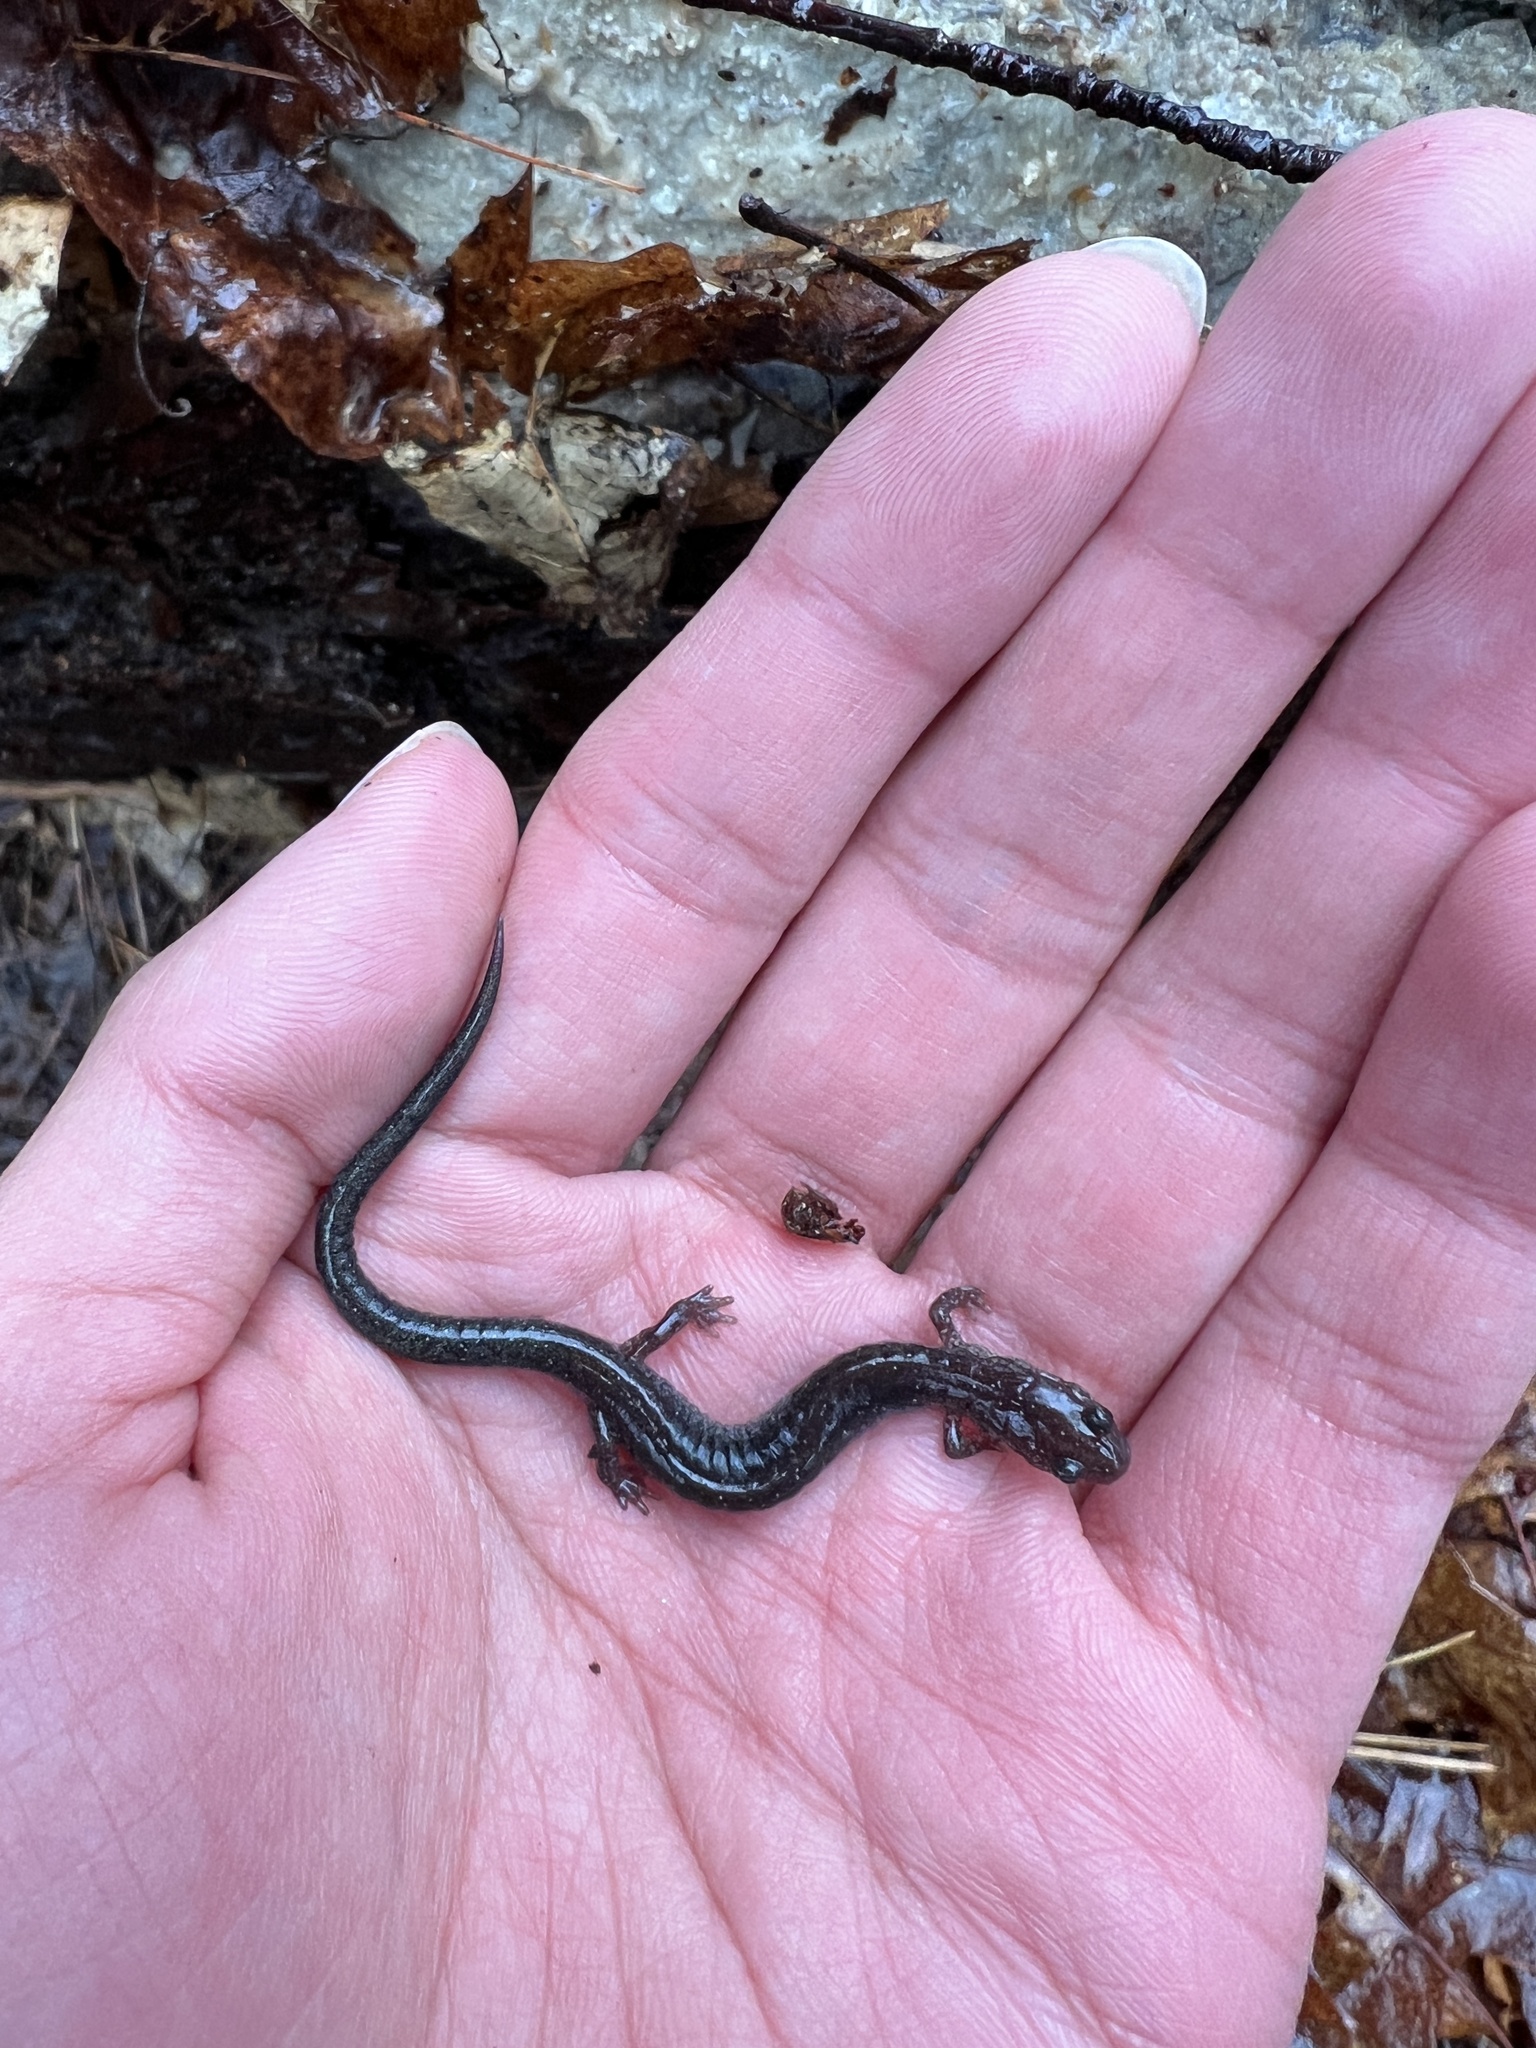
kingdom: Animalia
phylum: Chordata
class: Amphibia
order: Caudata
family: Plethodontidae
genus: Plethodon
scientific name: Plethodon cinereus
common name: Redback salamander
